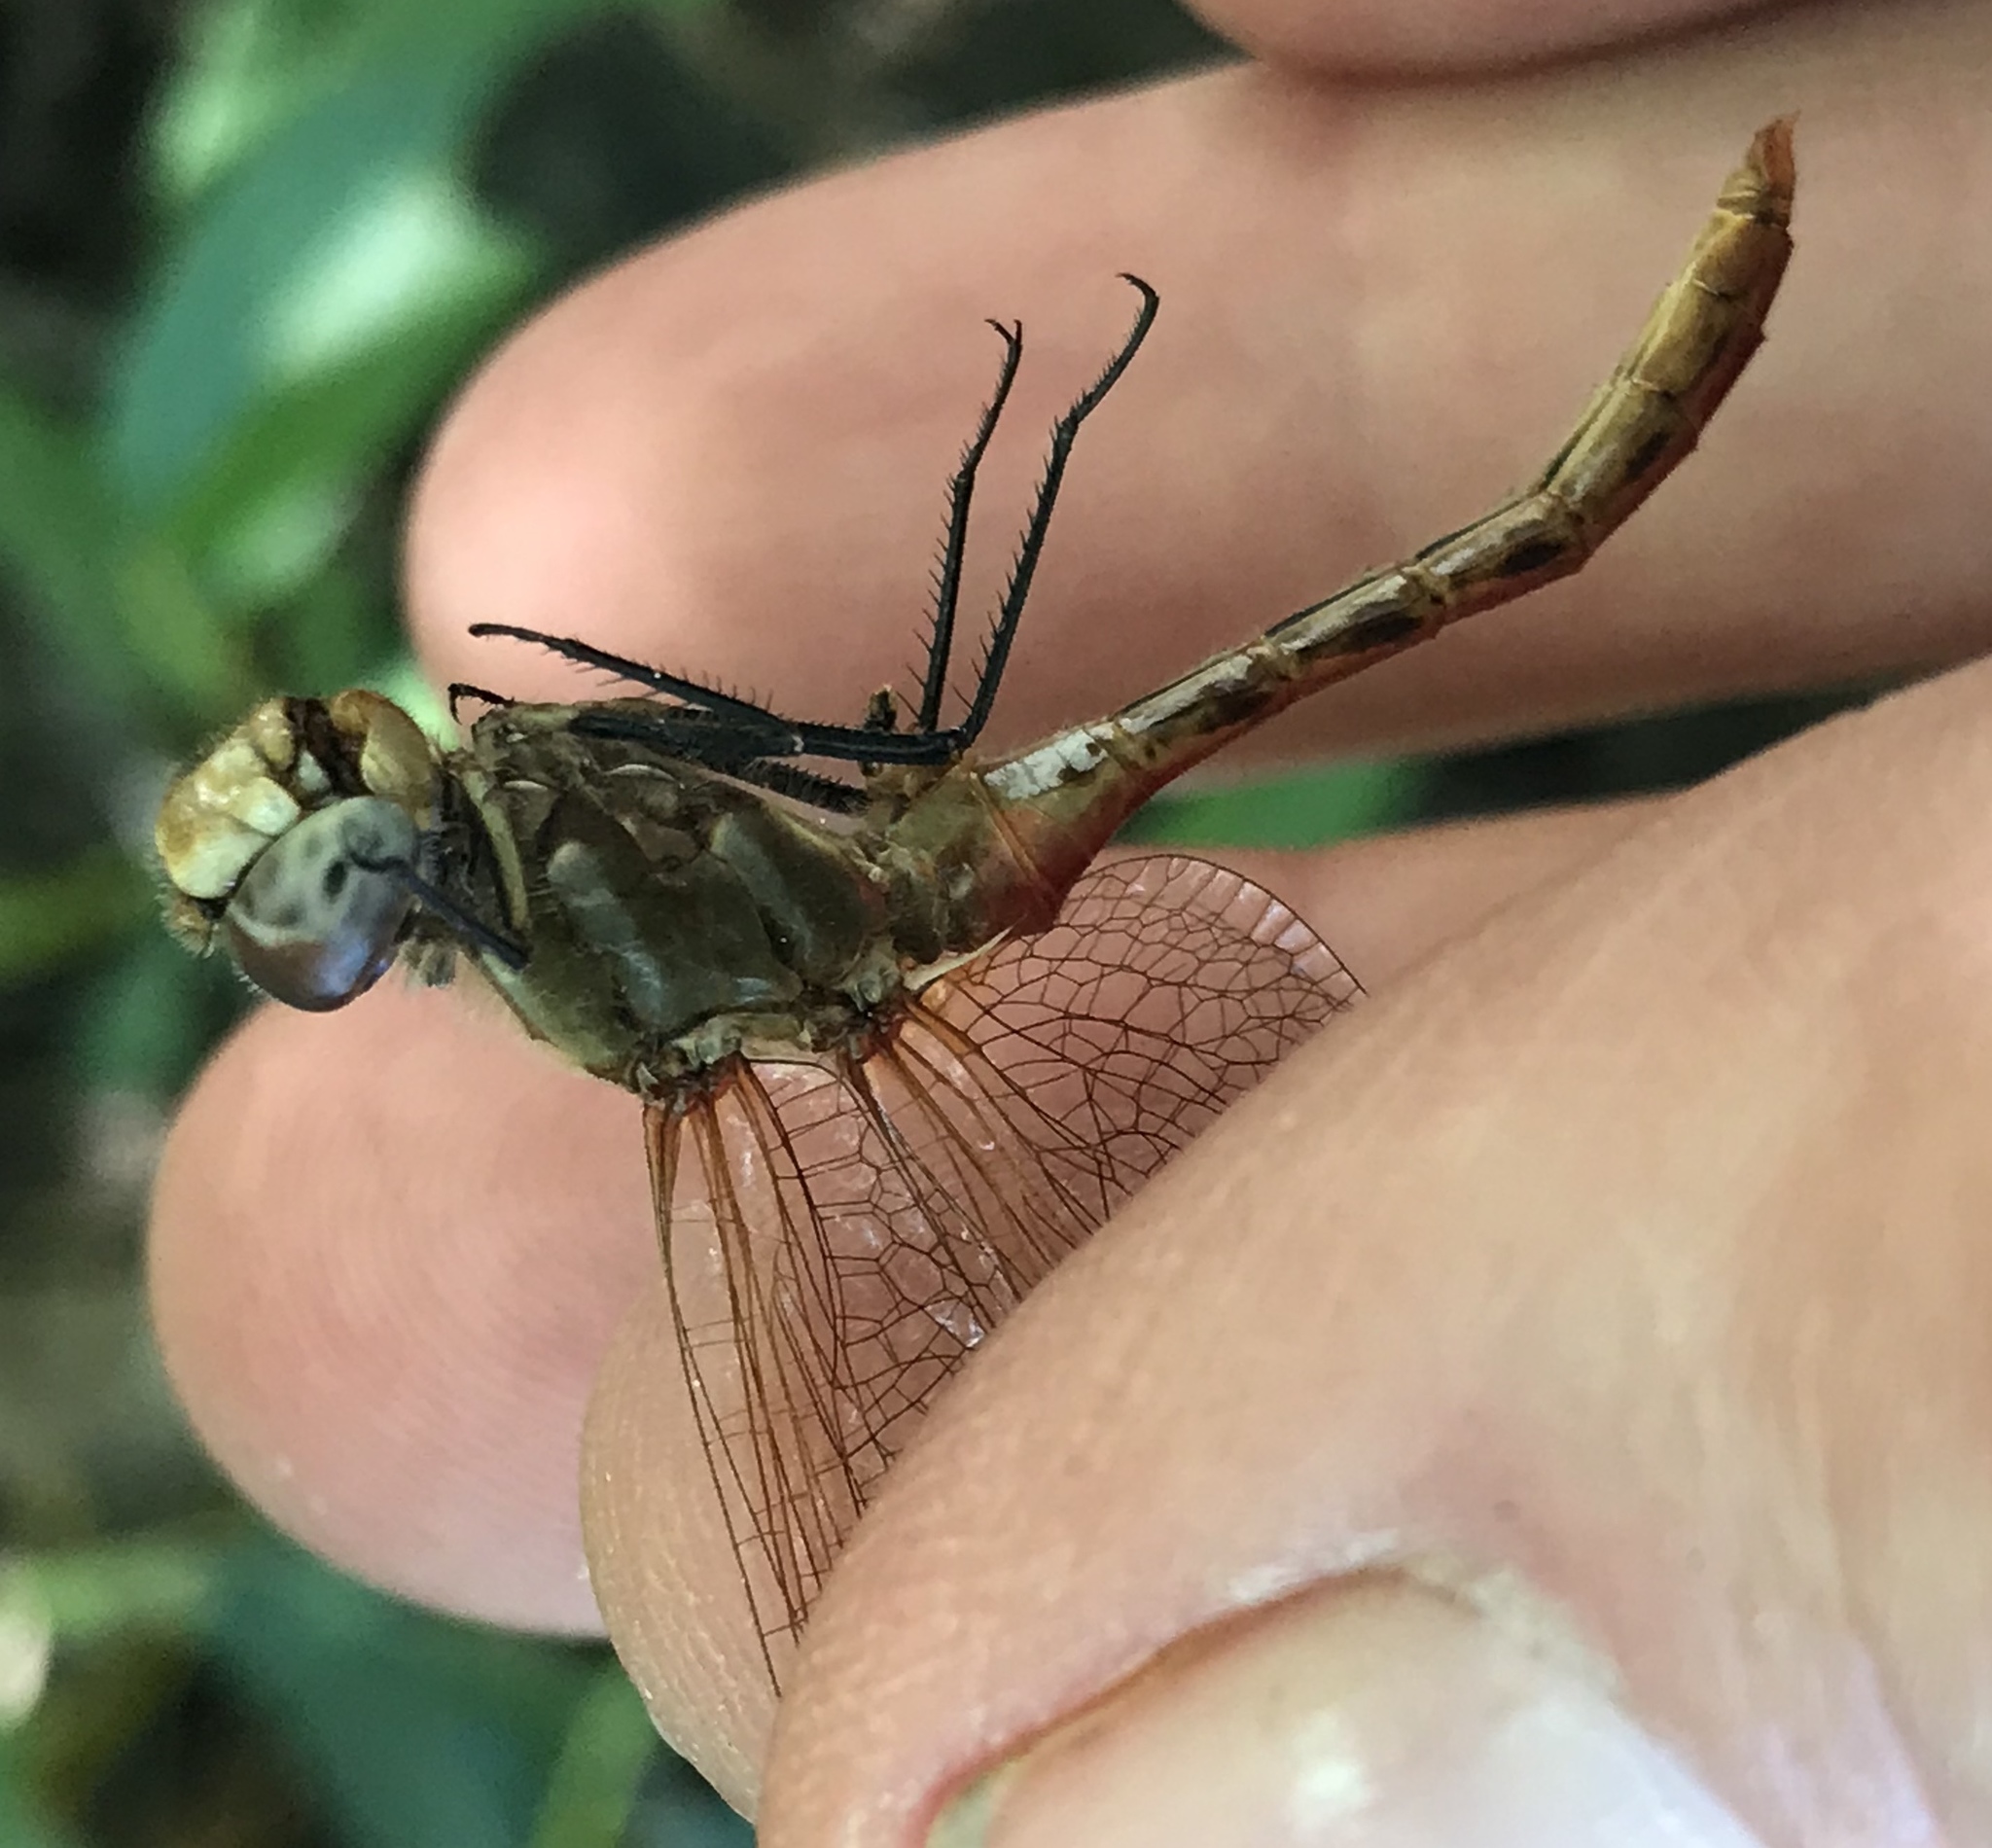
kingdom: Animalia
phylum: Arthropoda
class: Insecta
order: Odonata
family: Libellulidae
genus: Sympetrum
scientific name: Sympetrum pallipes
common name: Striped meadowhawk
